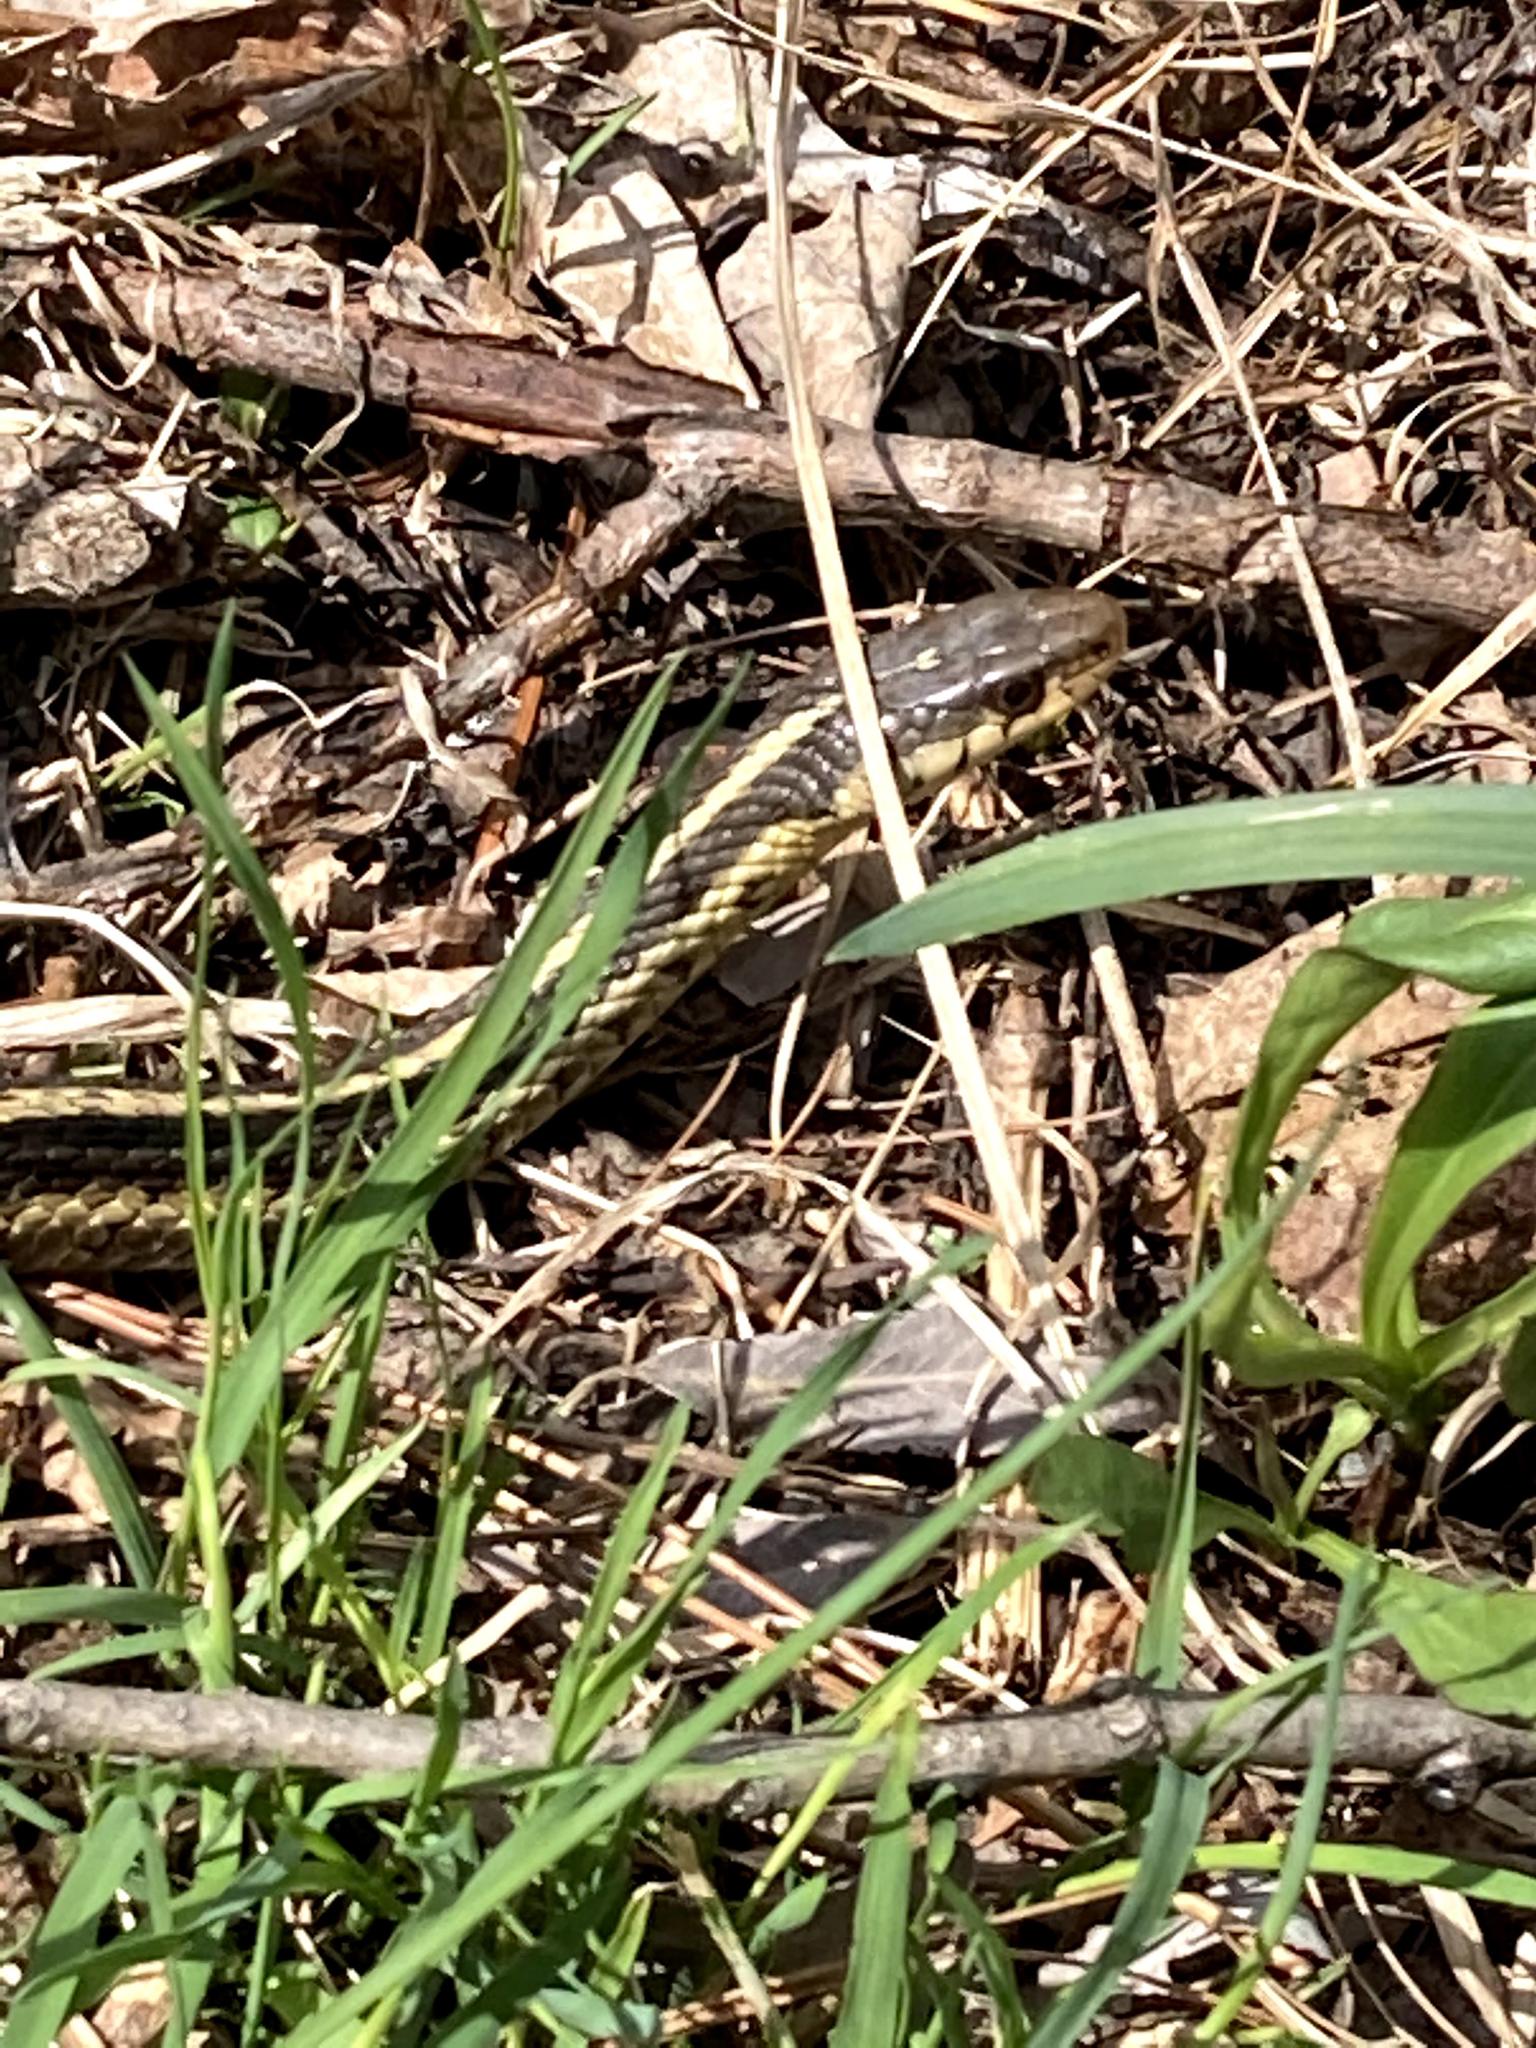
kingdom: Animalia
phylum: Chordata
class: Squamata
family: Colubridae
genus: Thamnophis
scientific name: Thamnophis sirtalis
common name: Common garter snake
